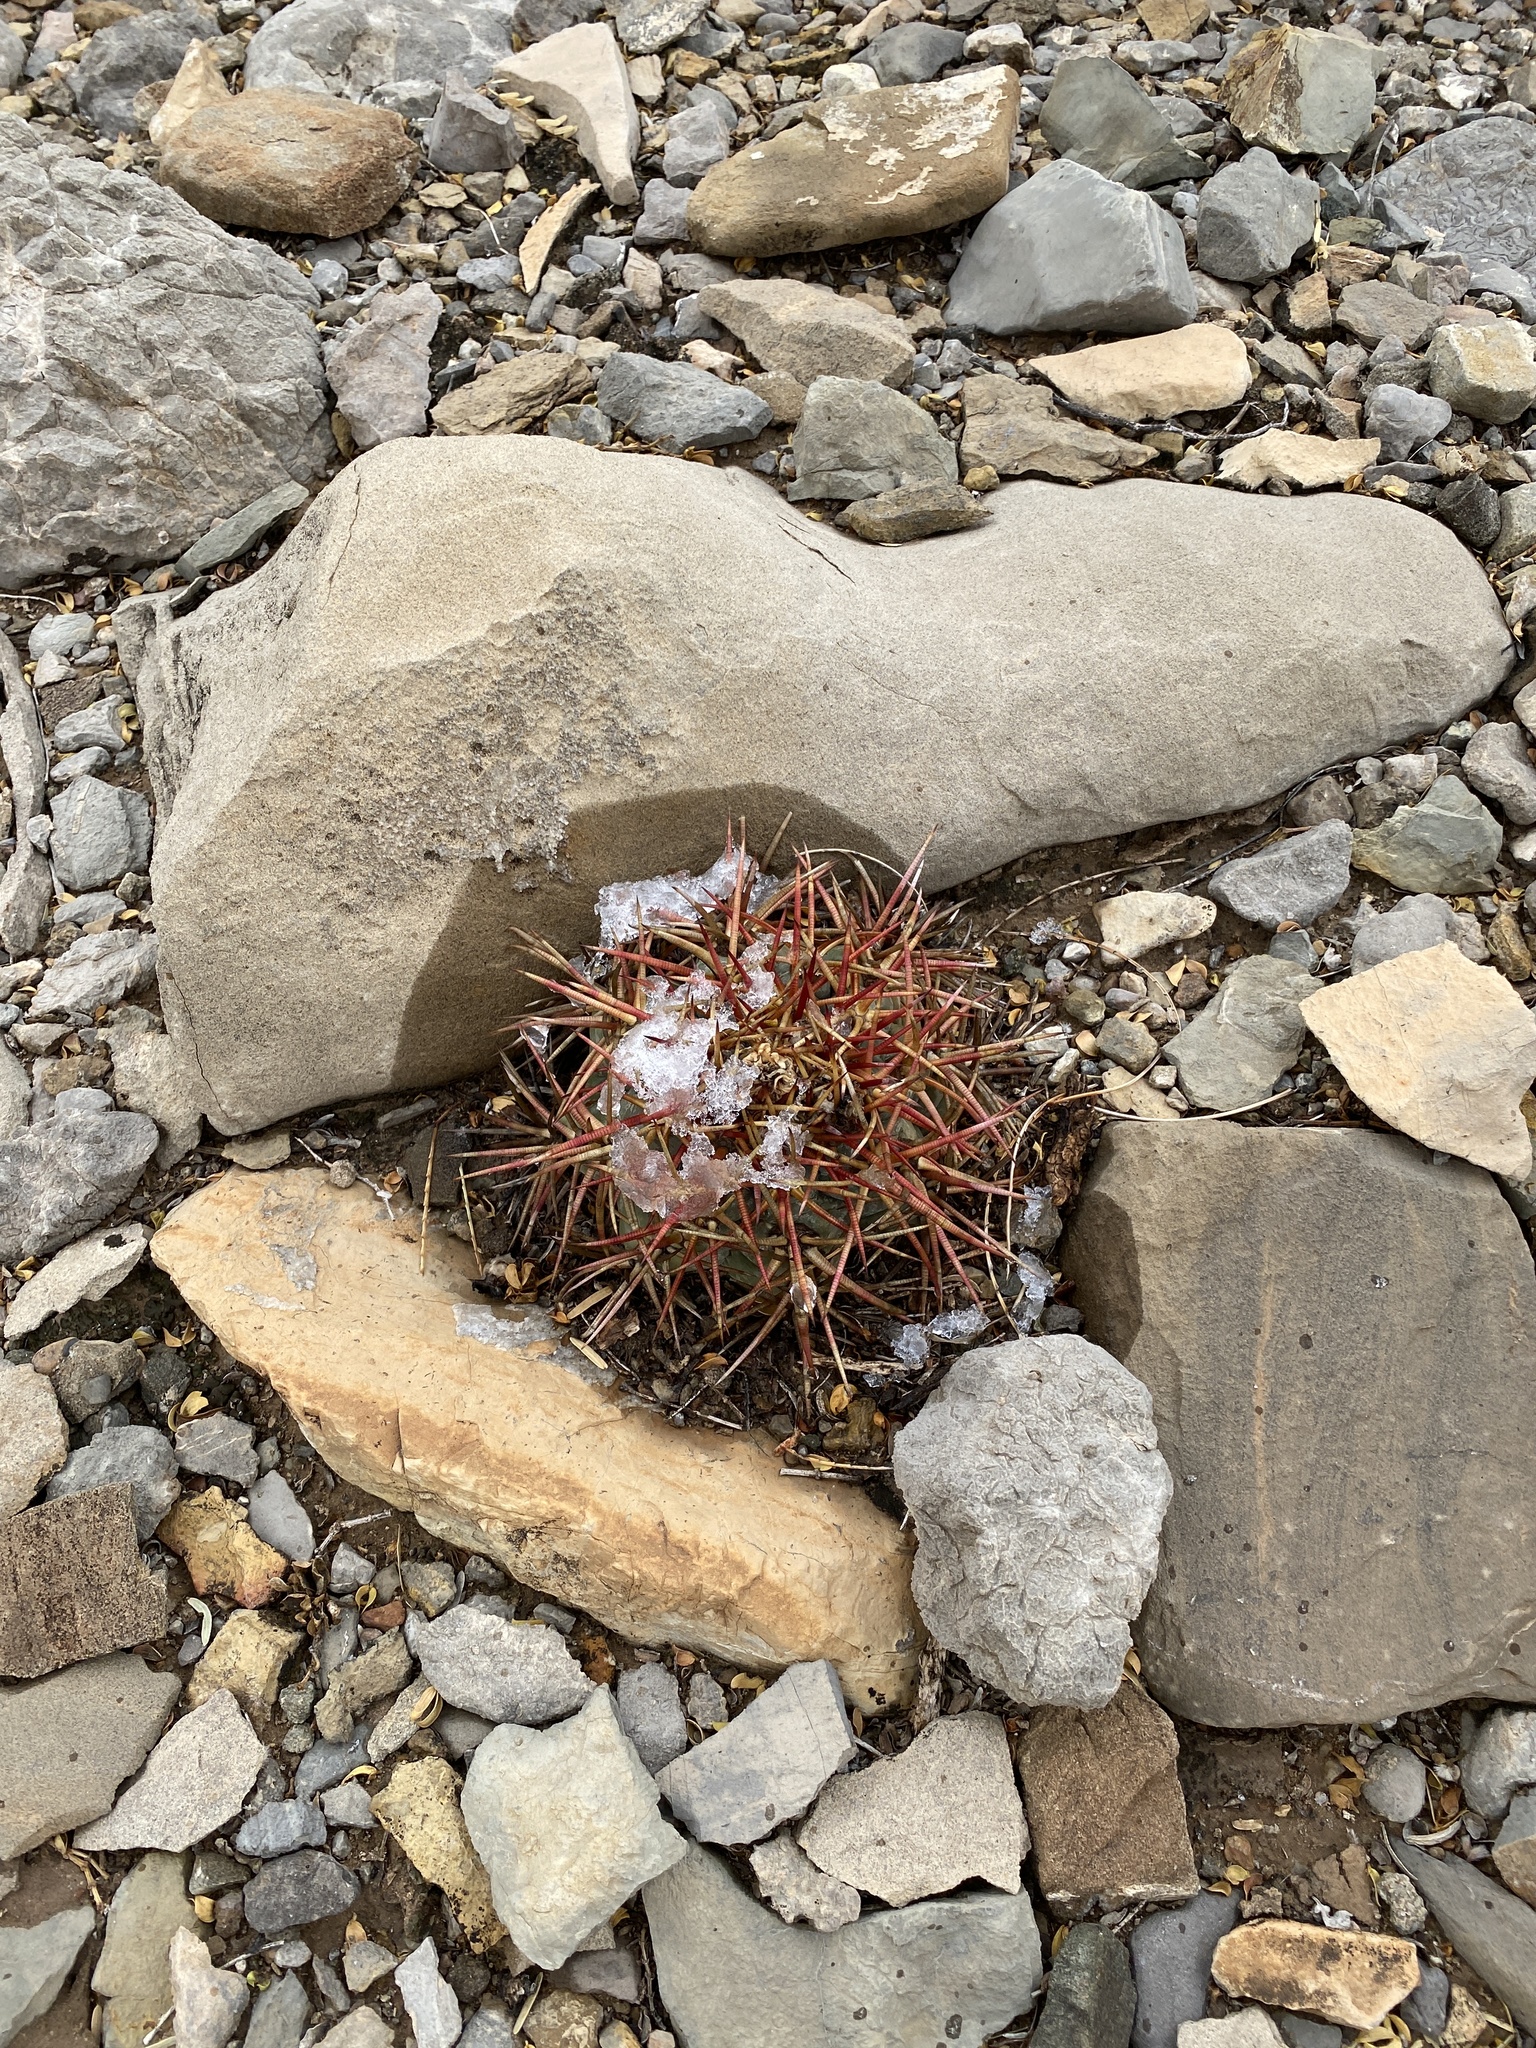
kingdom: Plantae
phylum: Tracheophyta
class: Magnoliopsida
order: Caryophyllales
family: Cactaceae
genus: Echinocactus
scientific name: Echinocactus horizonthalonius
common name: Devilshead
